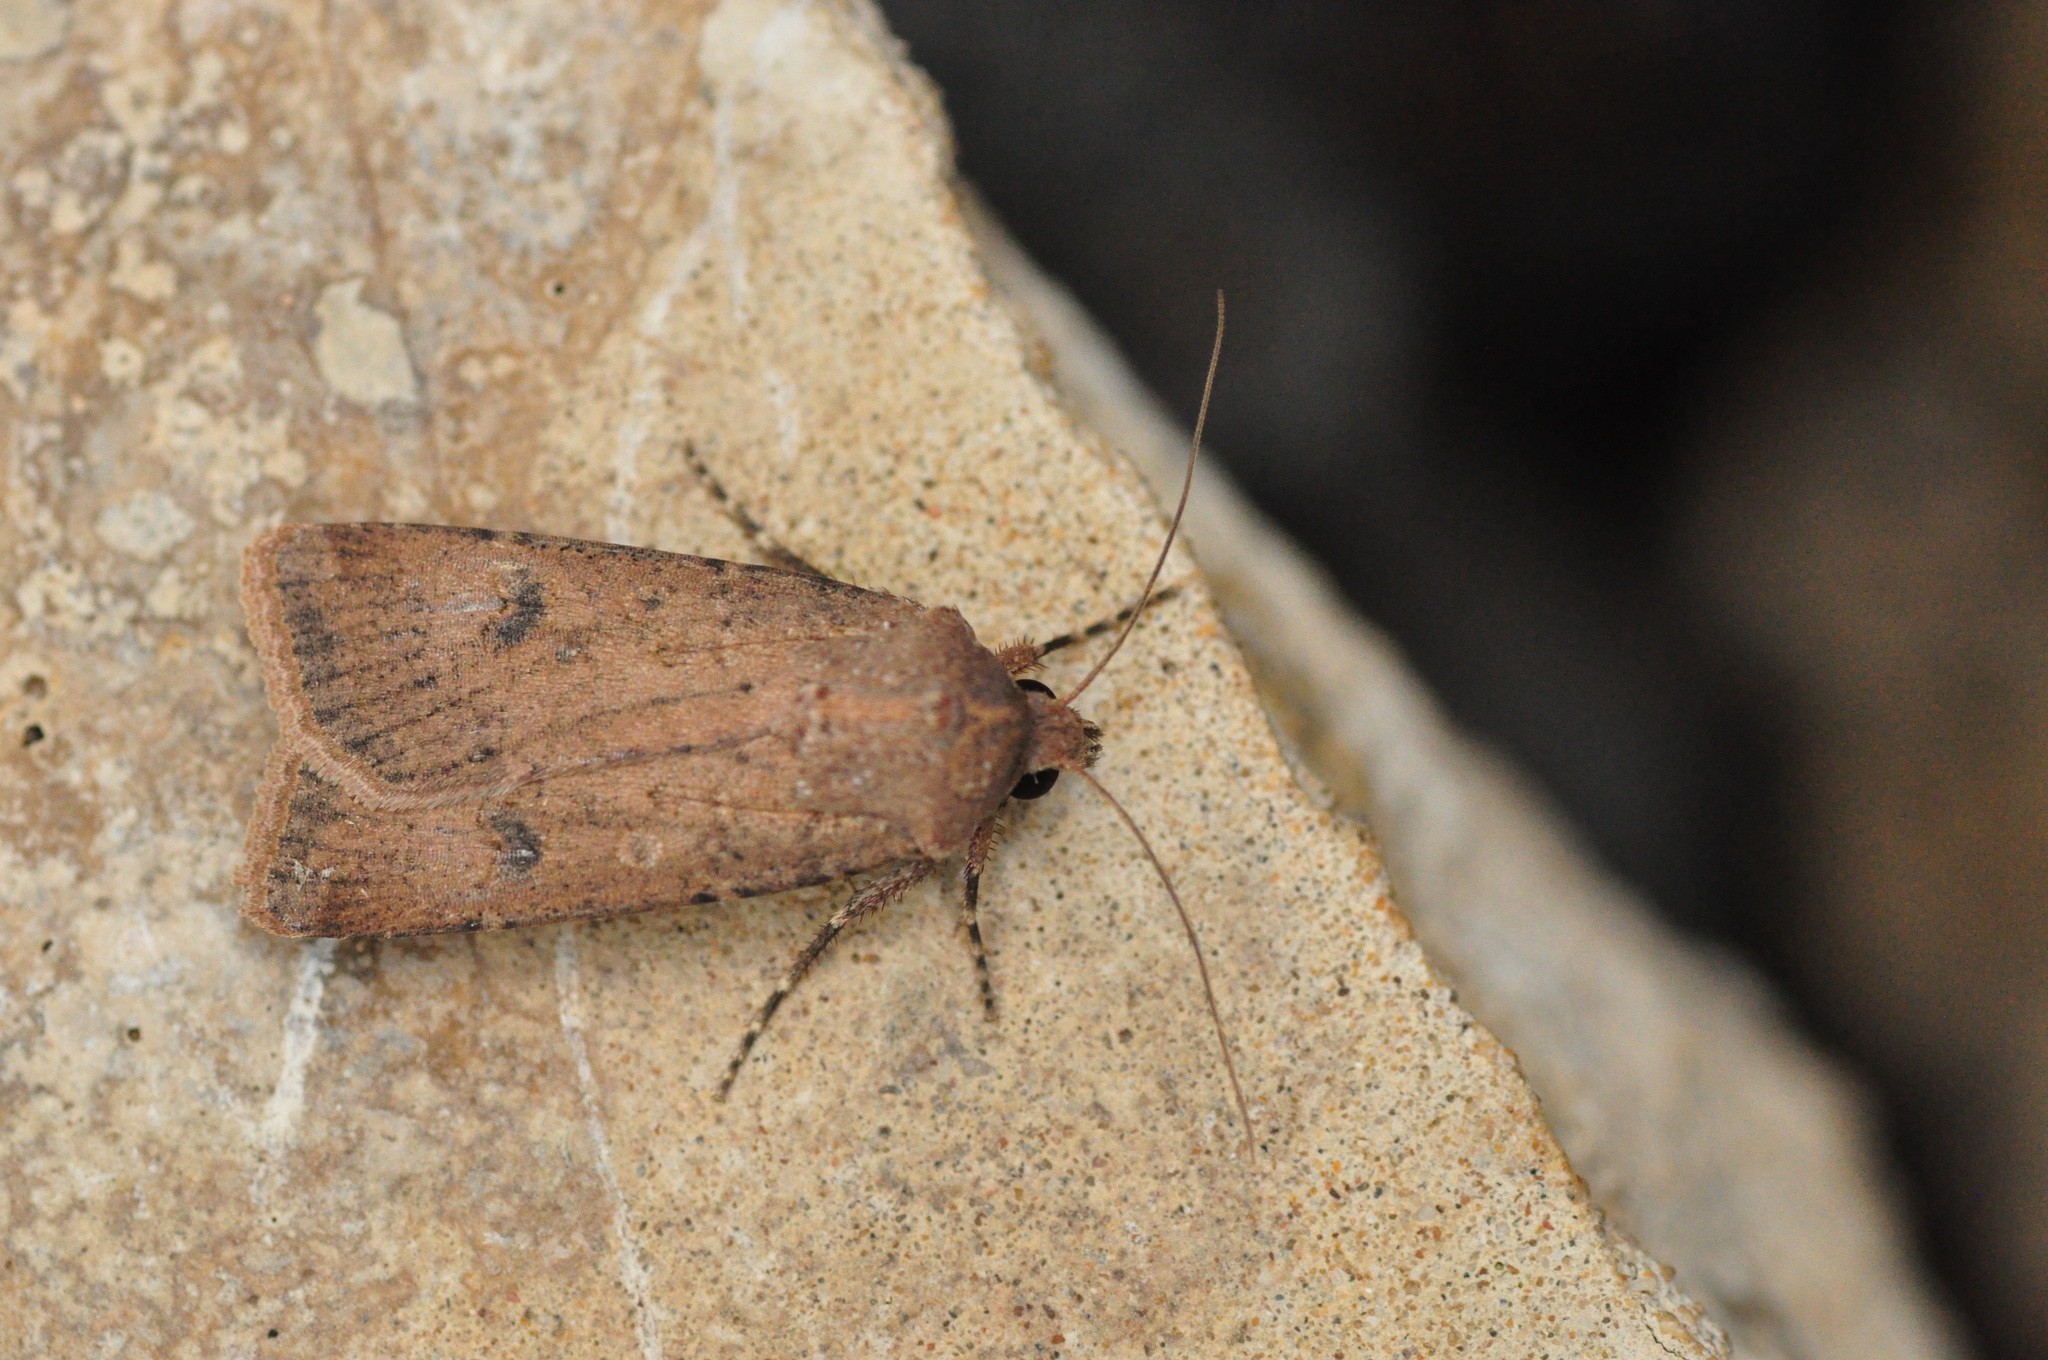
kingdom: Animalia
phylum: Arthropoda
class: Insecta
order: Lepidoptera
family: Noctuidae
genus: Agrotis
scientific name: Agrotis trux
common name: Crescent dart
